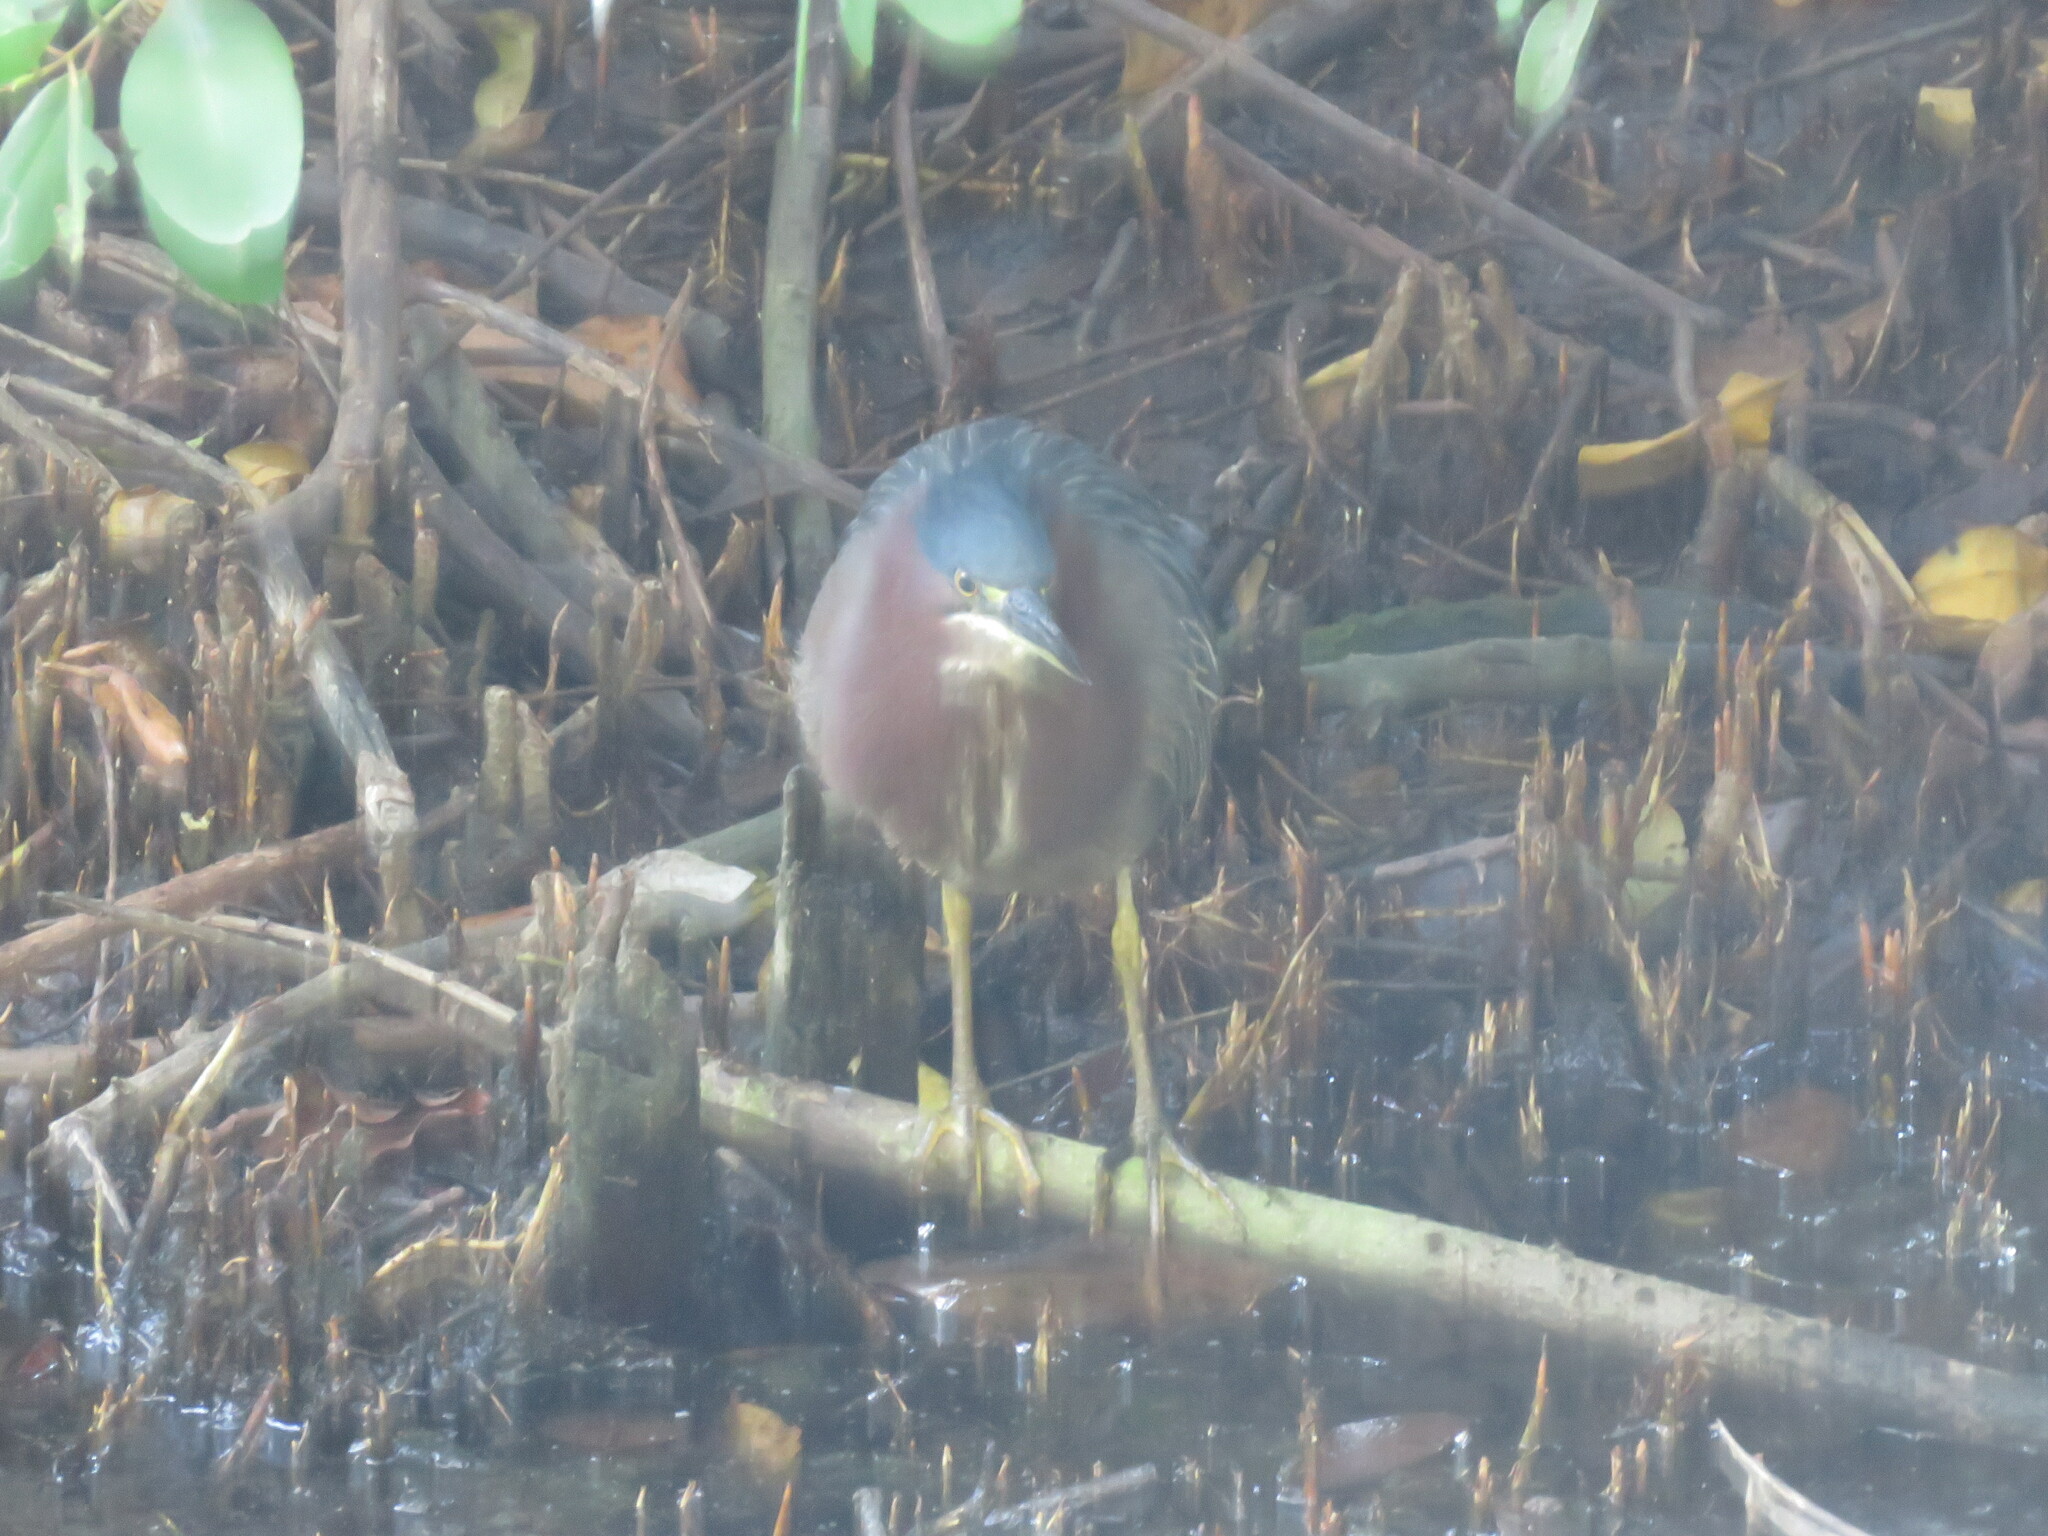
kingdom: Animalia
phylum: Chordata
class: Aves
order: Pelecaniformes
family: Ardeidae
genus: Butorides
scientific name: Butorides virescens
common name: Green heron
